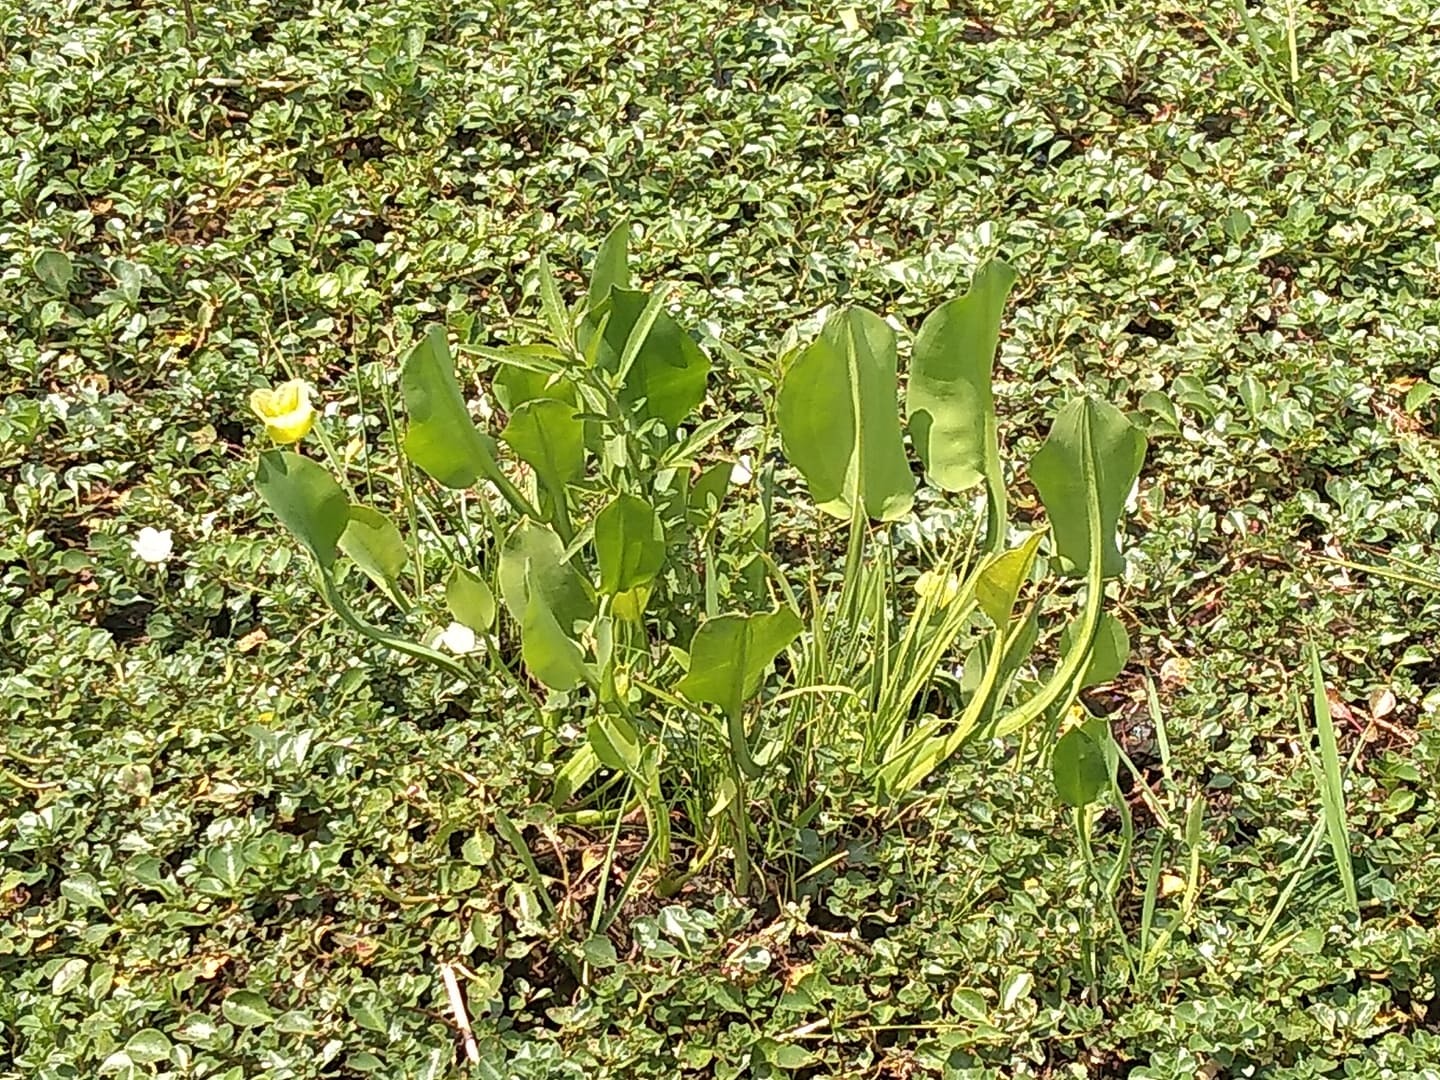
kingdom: Plantae
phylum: Tracheophyta
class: Liliopsida
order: Alismatales
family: Alismataceae
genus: Limnocharis
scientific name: Limnocharis flava
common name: Sawah-flower-rush
